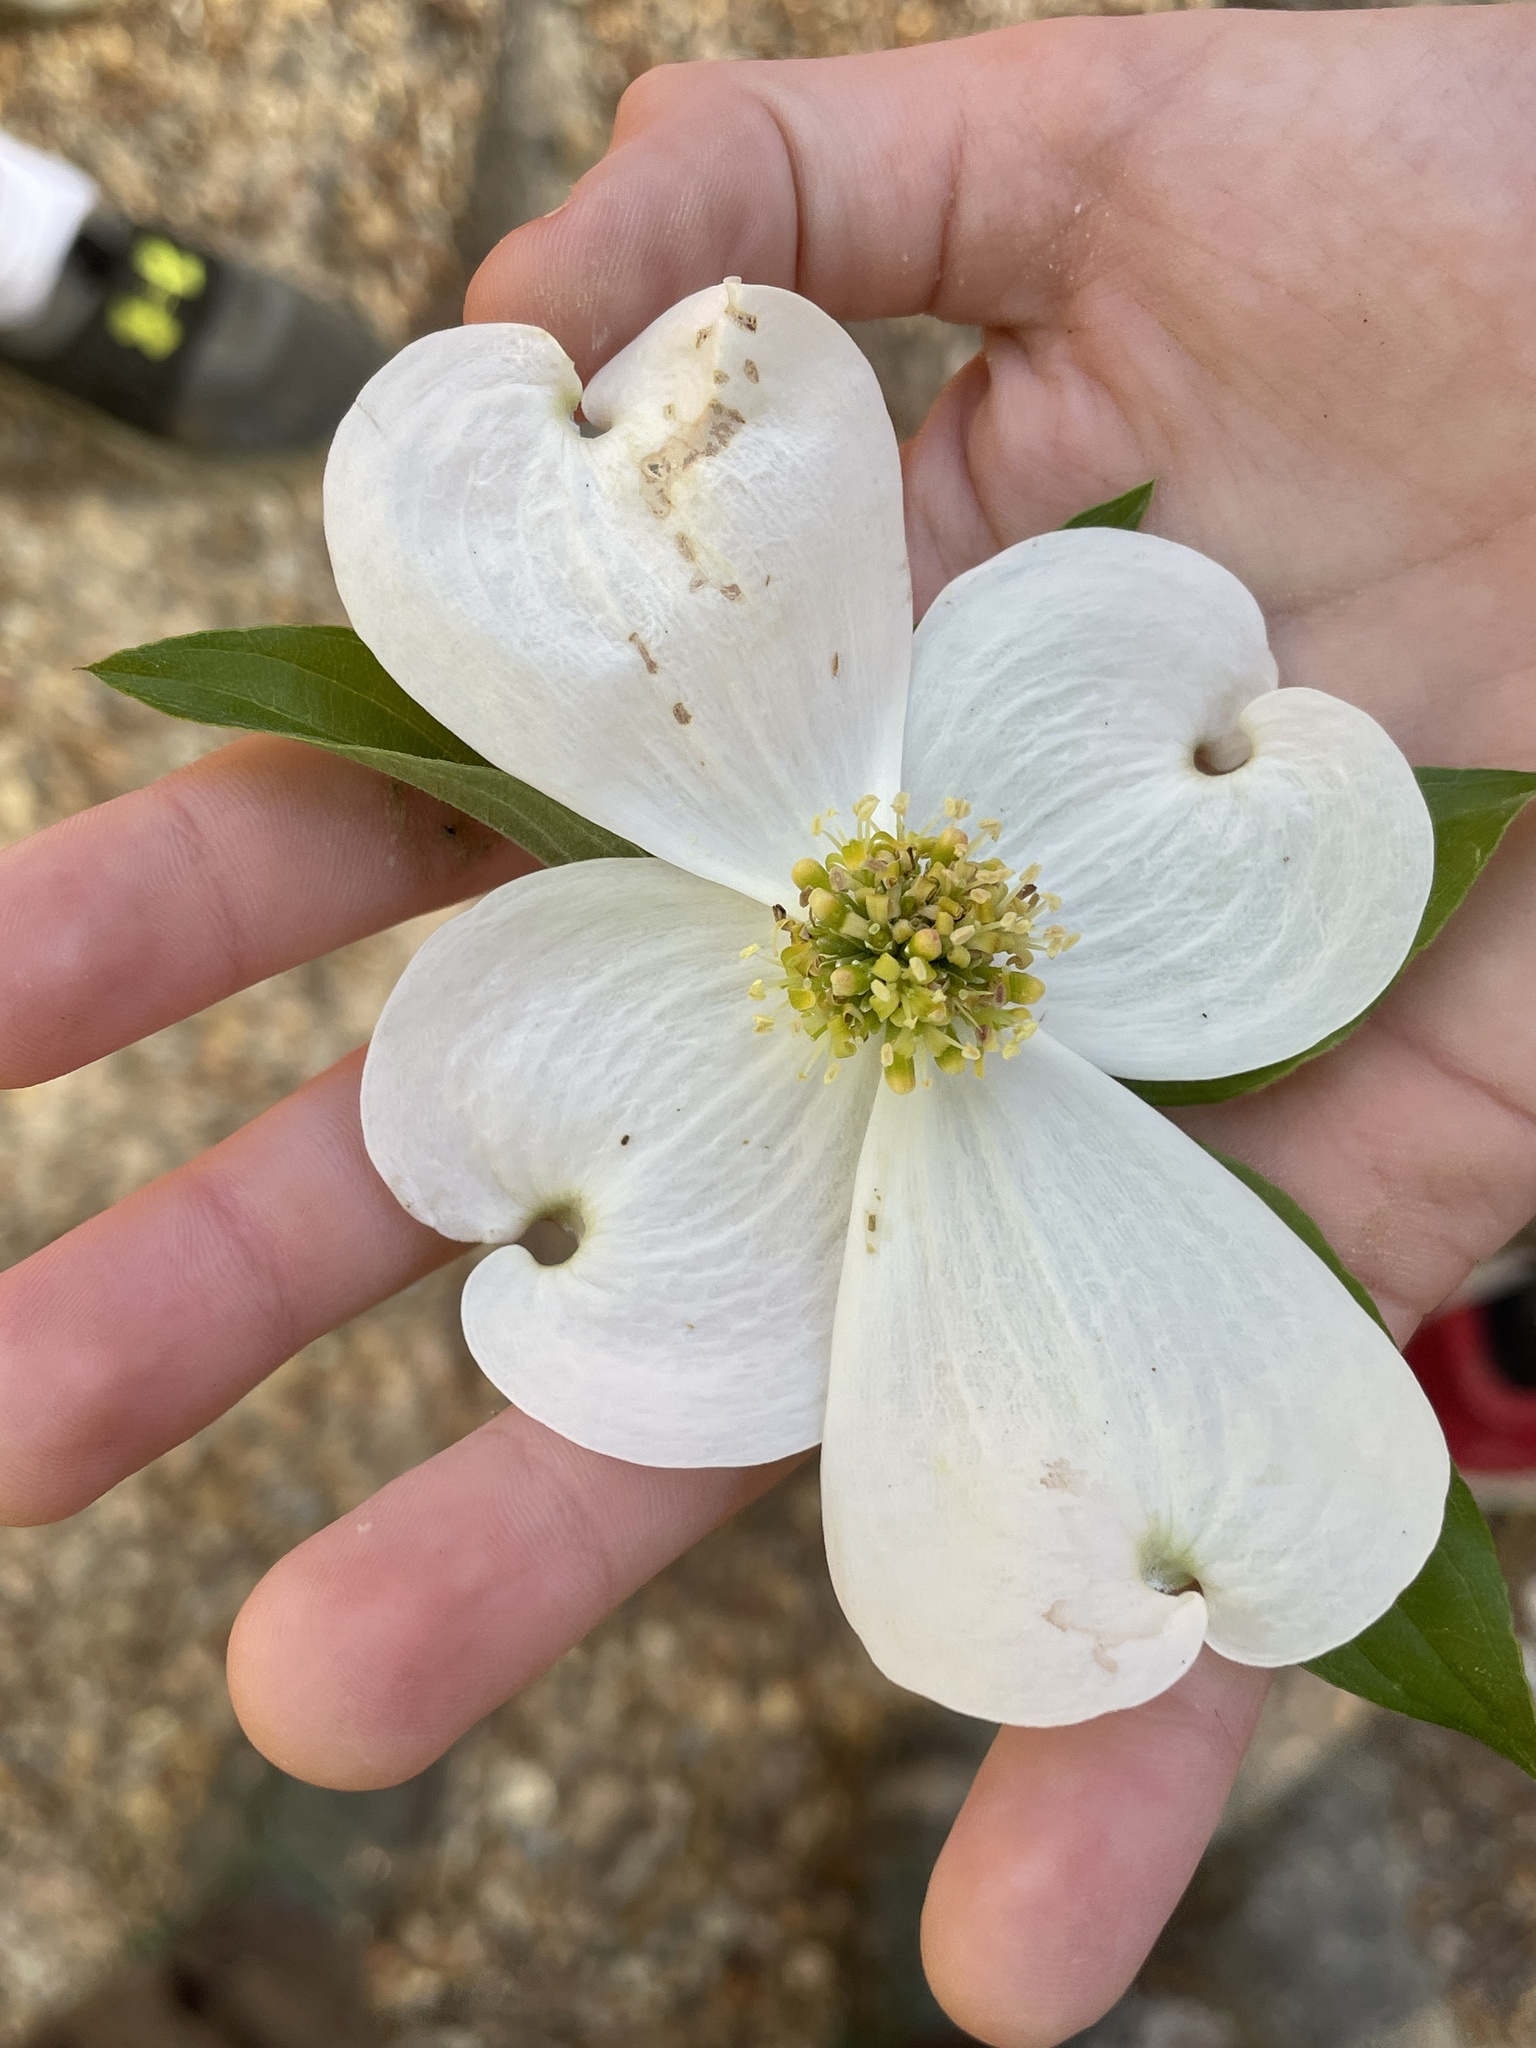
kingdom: Plantae
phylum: Tracheophyta
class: Magnoliopsida
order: Cornales
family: Cornaceae
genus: Cornus
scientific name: Cornus florida
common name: Flowering dogwood
